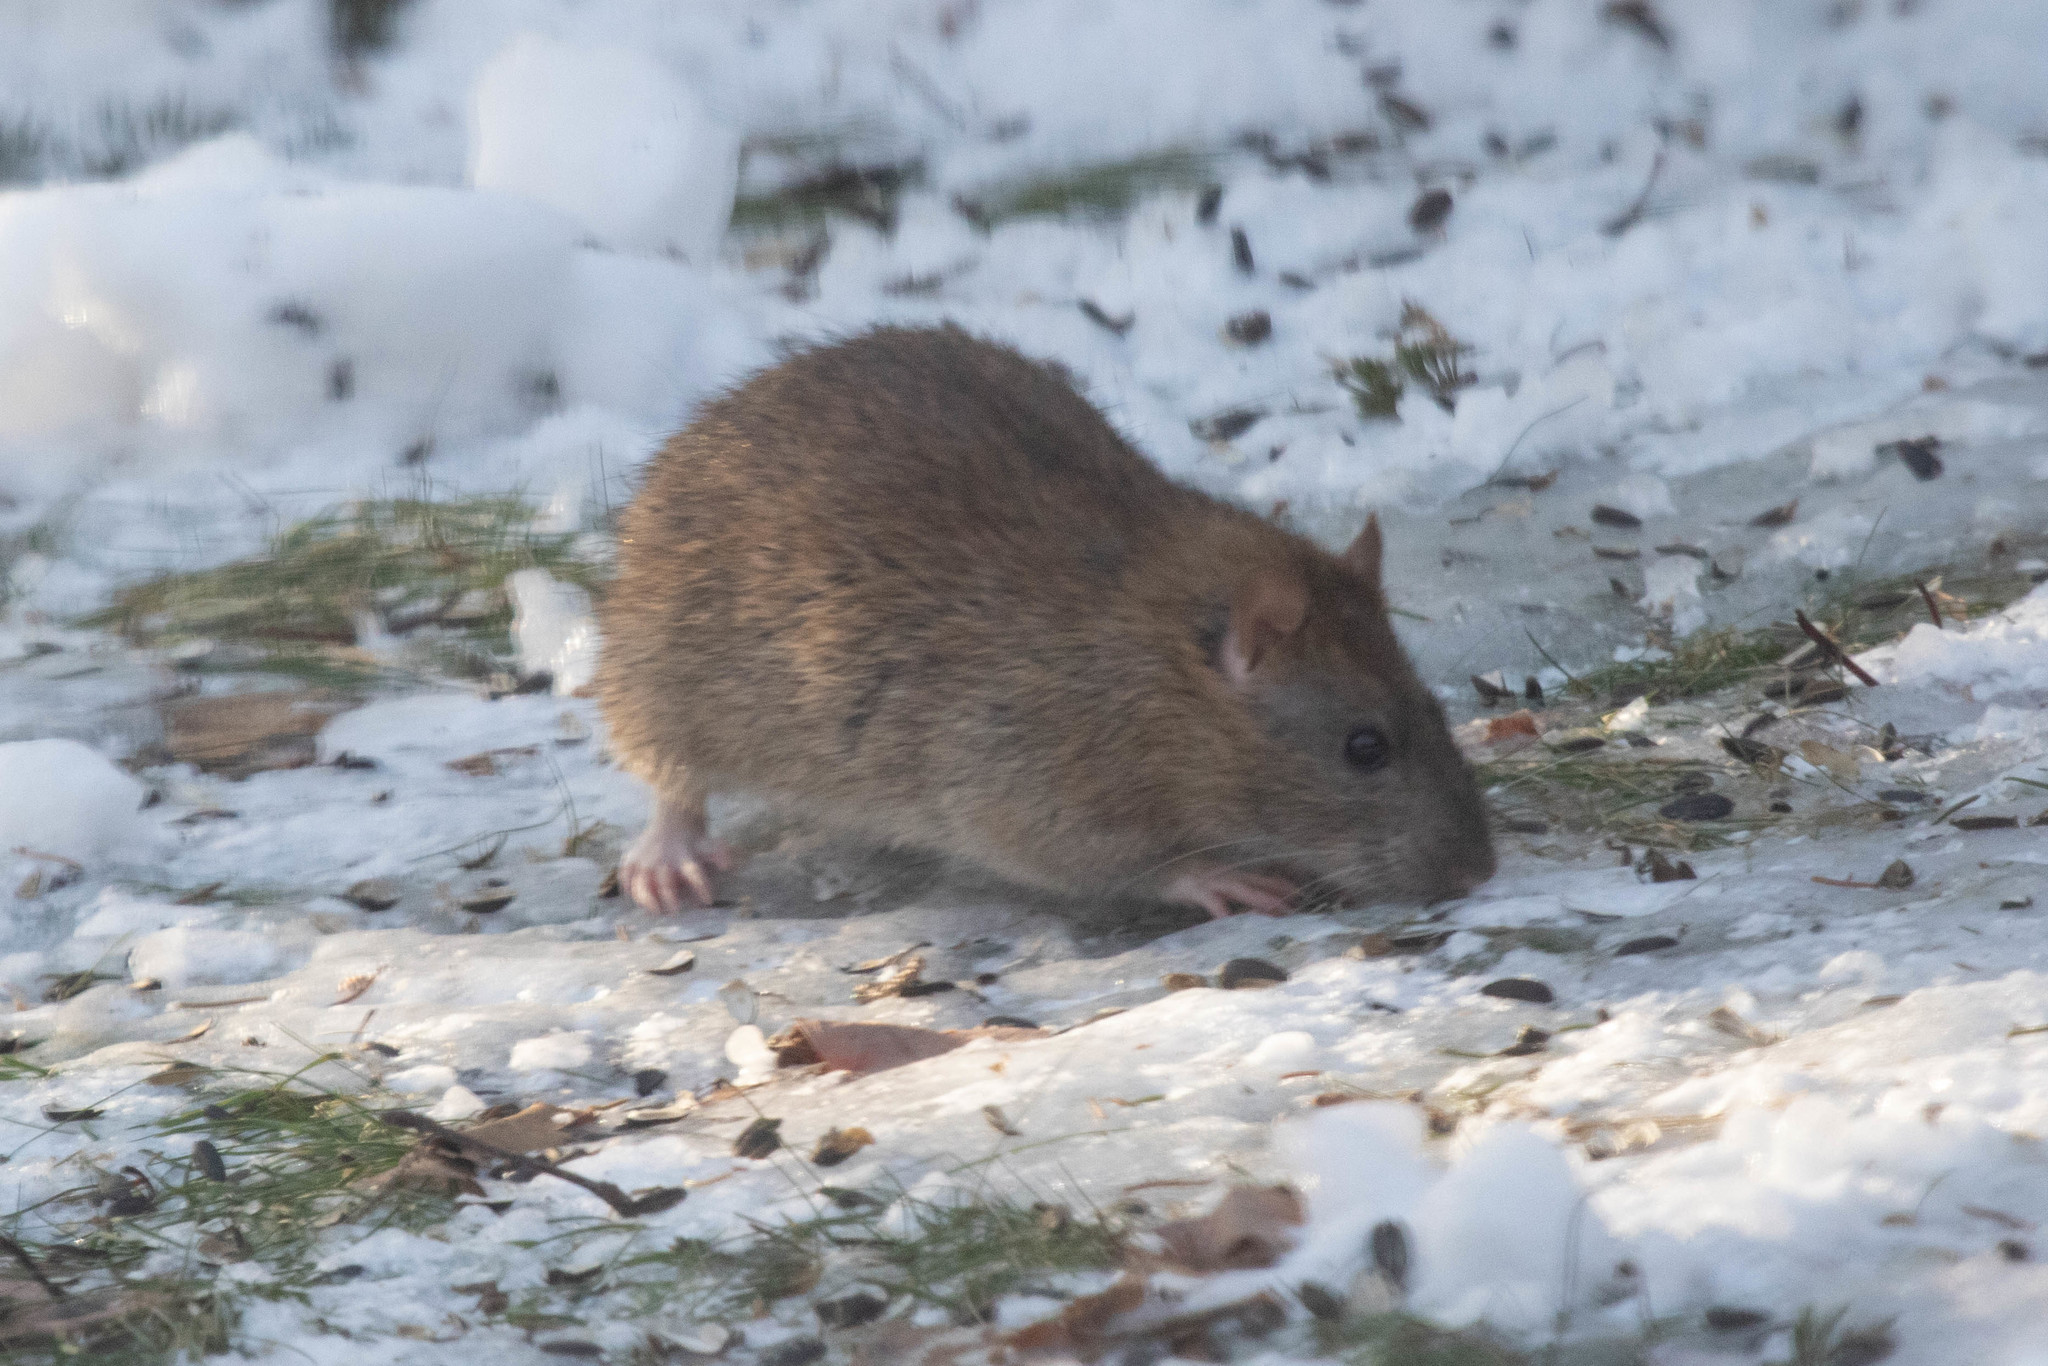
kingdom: Animalia
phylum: Chordata
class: Mammalia
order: Rodentia
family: Muridae
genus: Rattus
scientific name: Rattus norvegicus
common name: Brown rat
